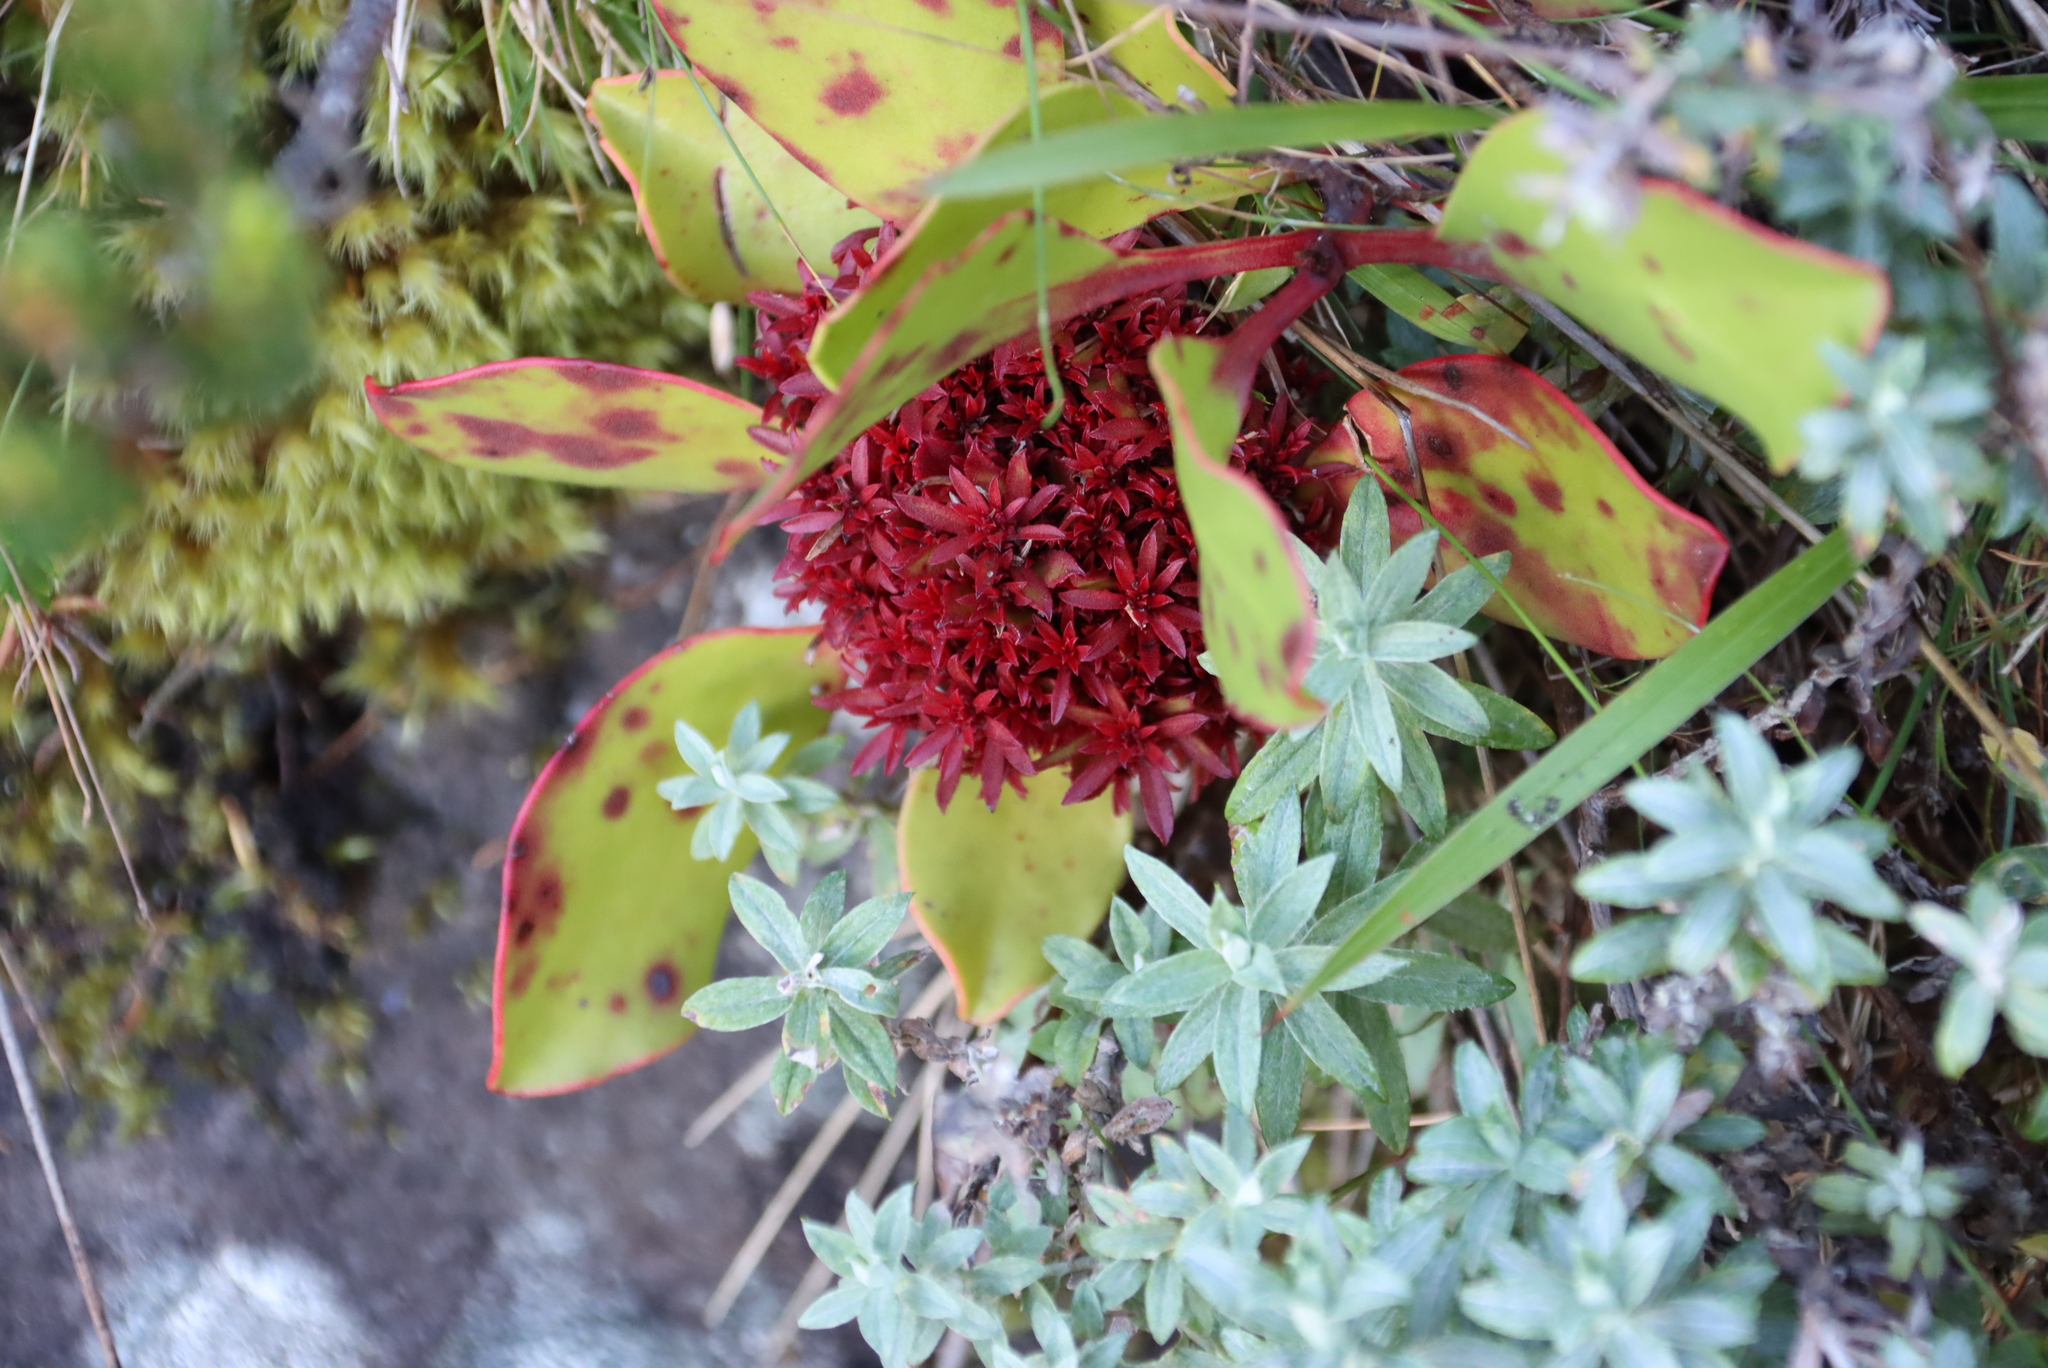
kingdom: Bacteria
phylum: Firmicutes
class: Bacilli
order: Acholeplasmatales
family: Acholeplasmataceae
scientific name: Acholeplasmataceae
